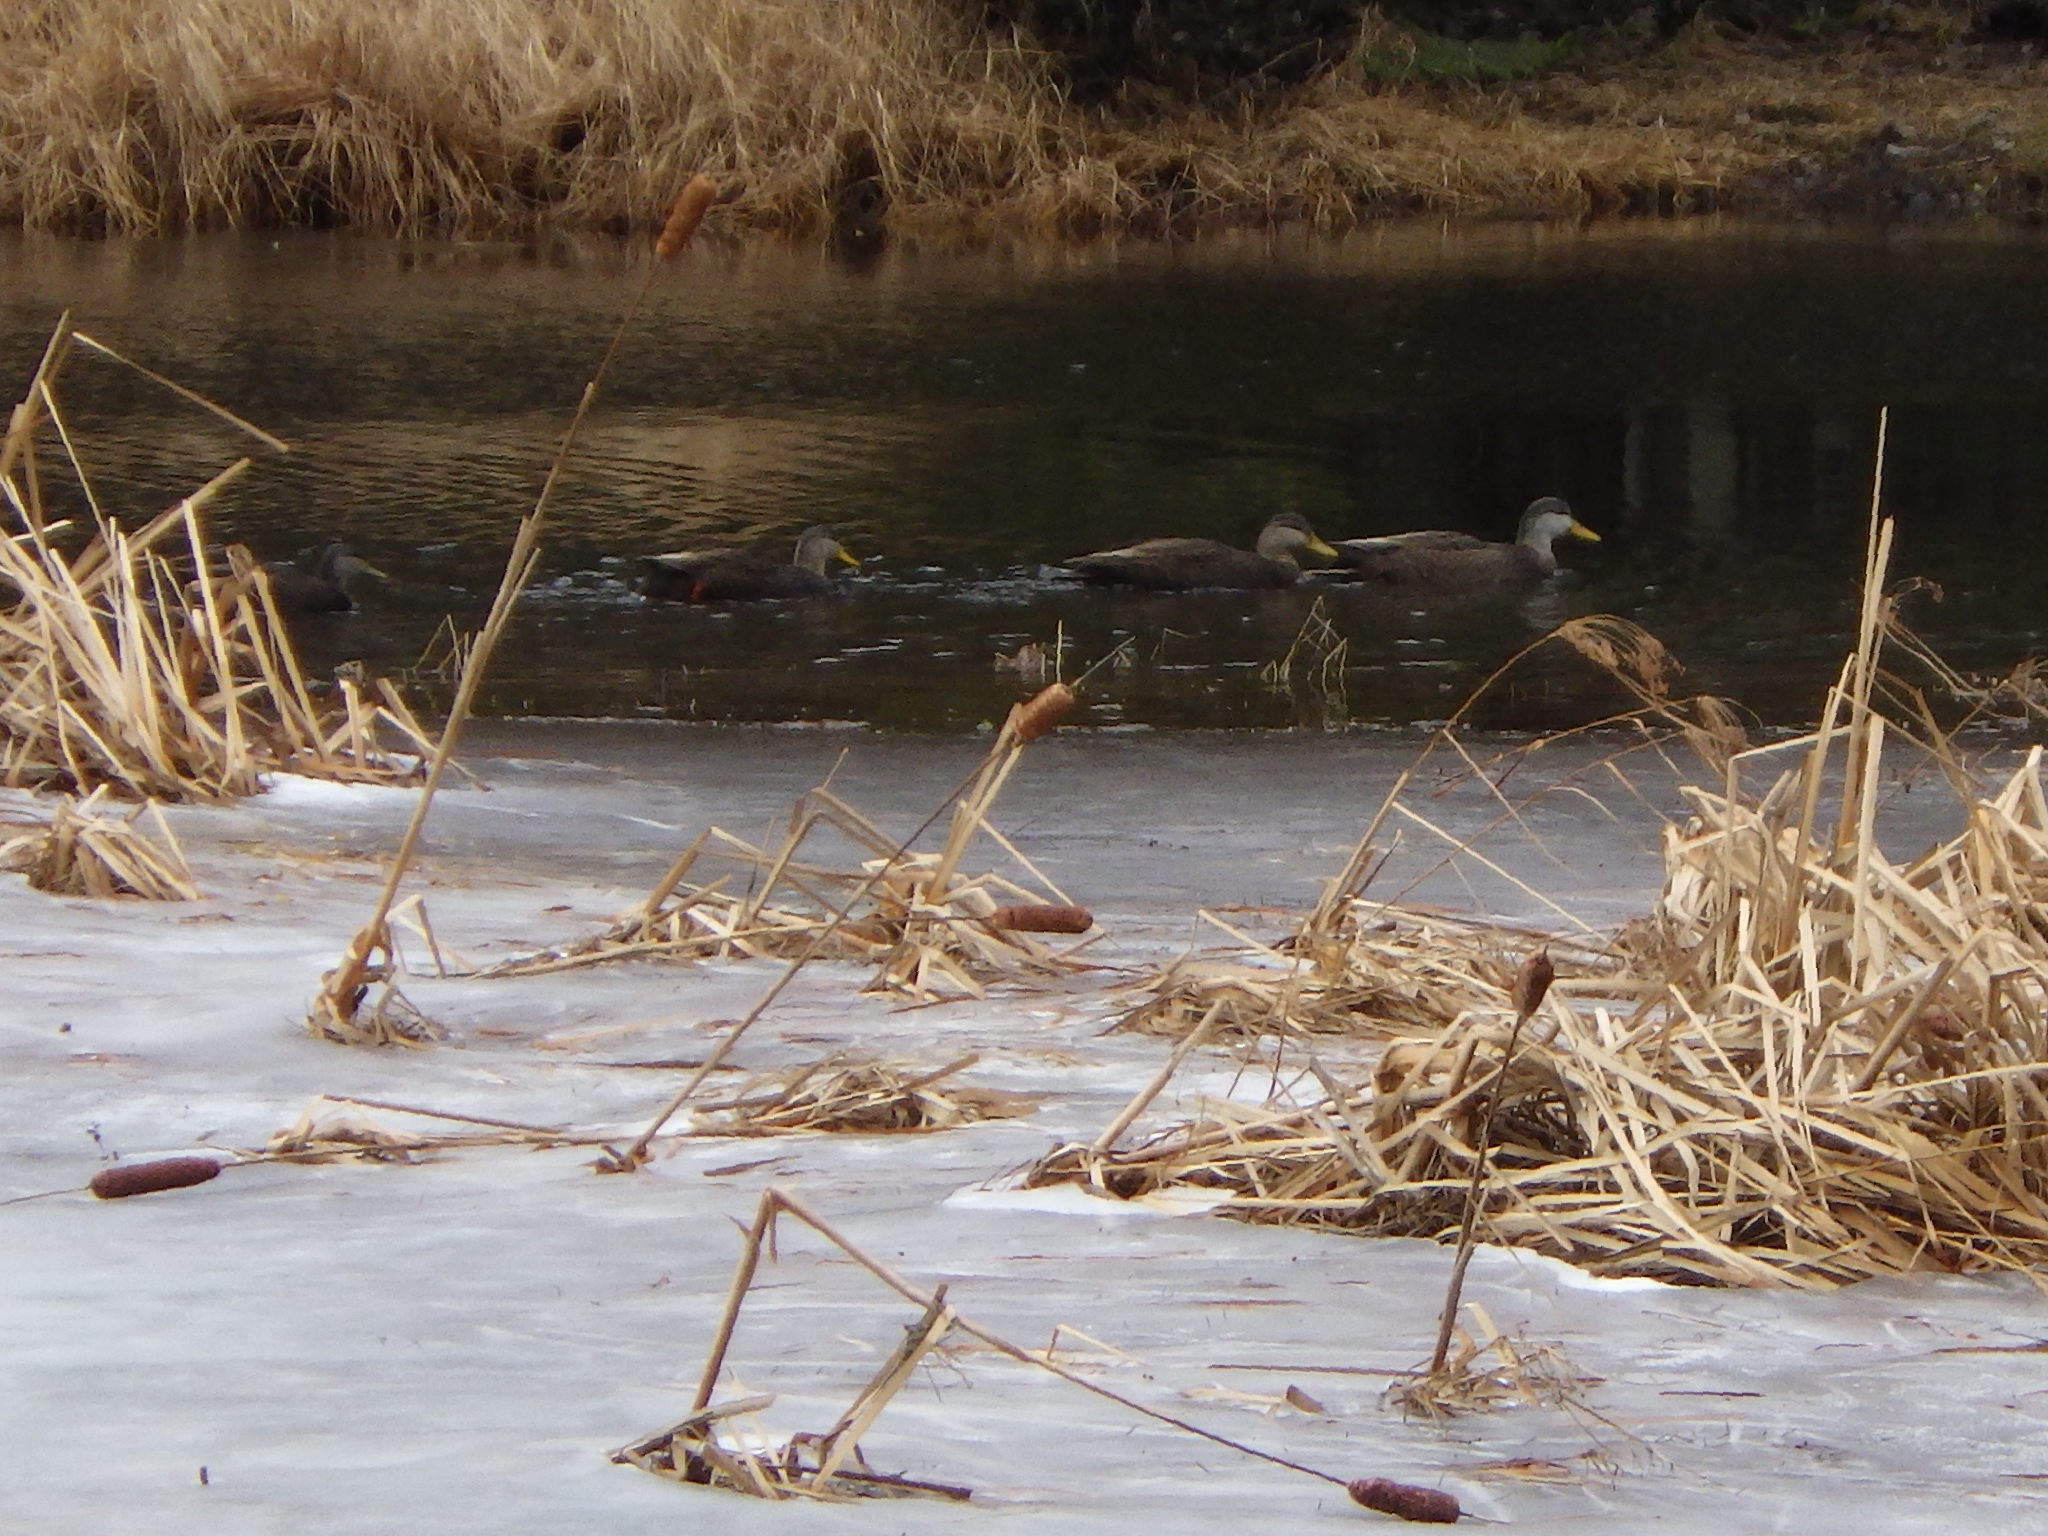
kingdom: Animalia
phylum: Chordata
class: Aves
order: Anseriformes
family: Anatidae
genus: Anas
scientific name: Anas rubripes
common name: American black duck
